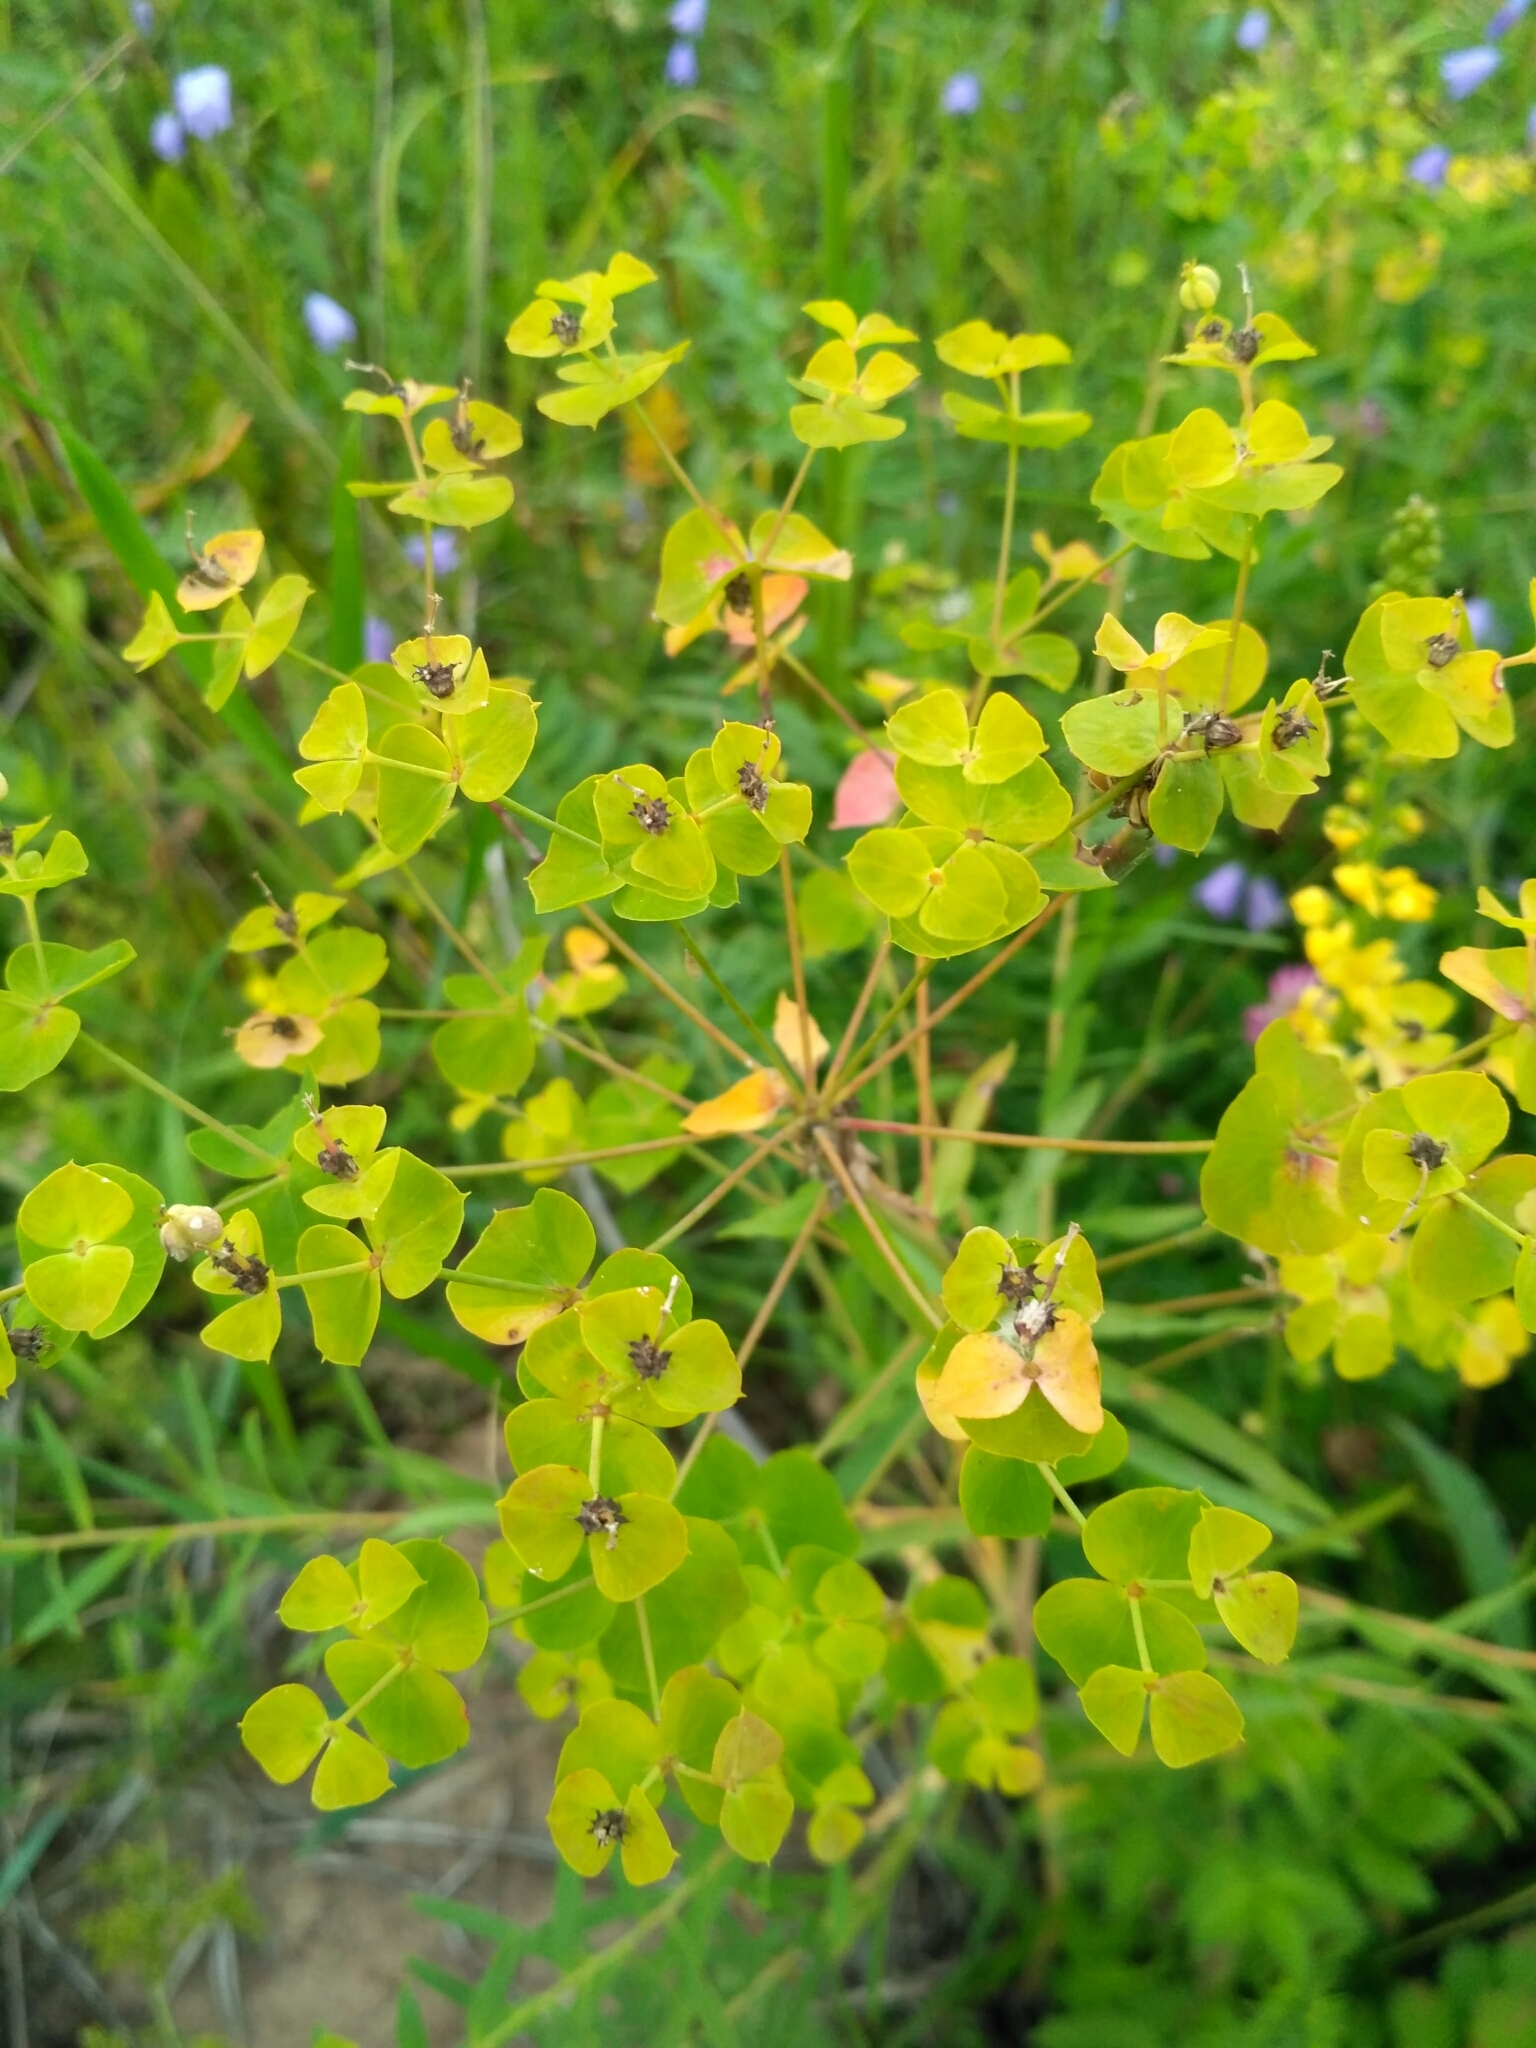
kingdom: Plantae
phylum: Tracheophyta
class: Magnoliopsida
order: Malpighiales
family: Euphorbiaceae
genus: Euphorbia
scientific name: Euphorbia virgata
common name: Leafy spurge
